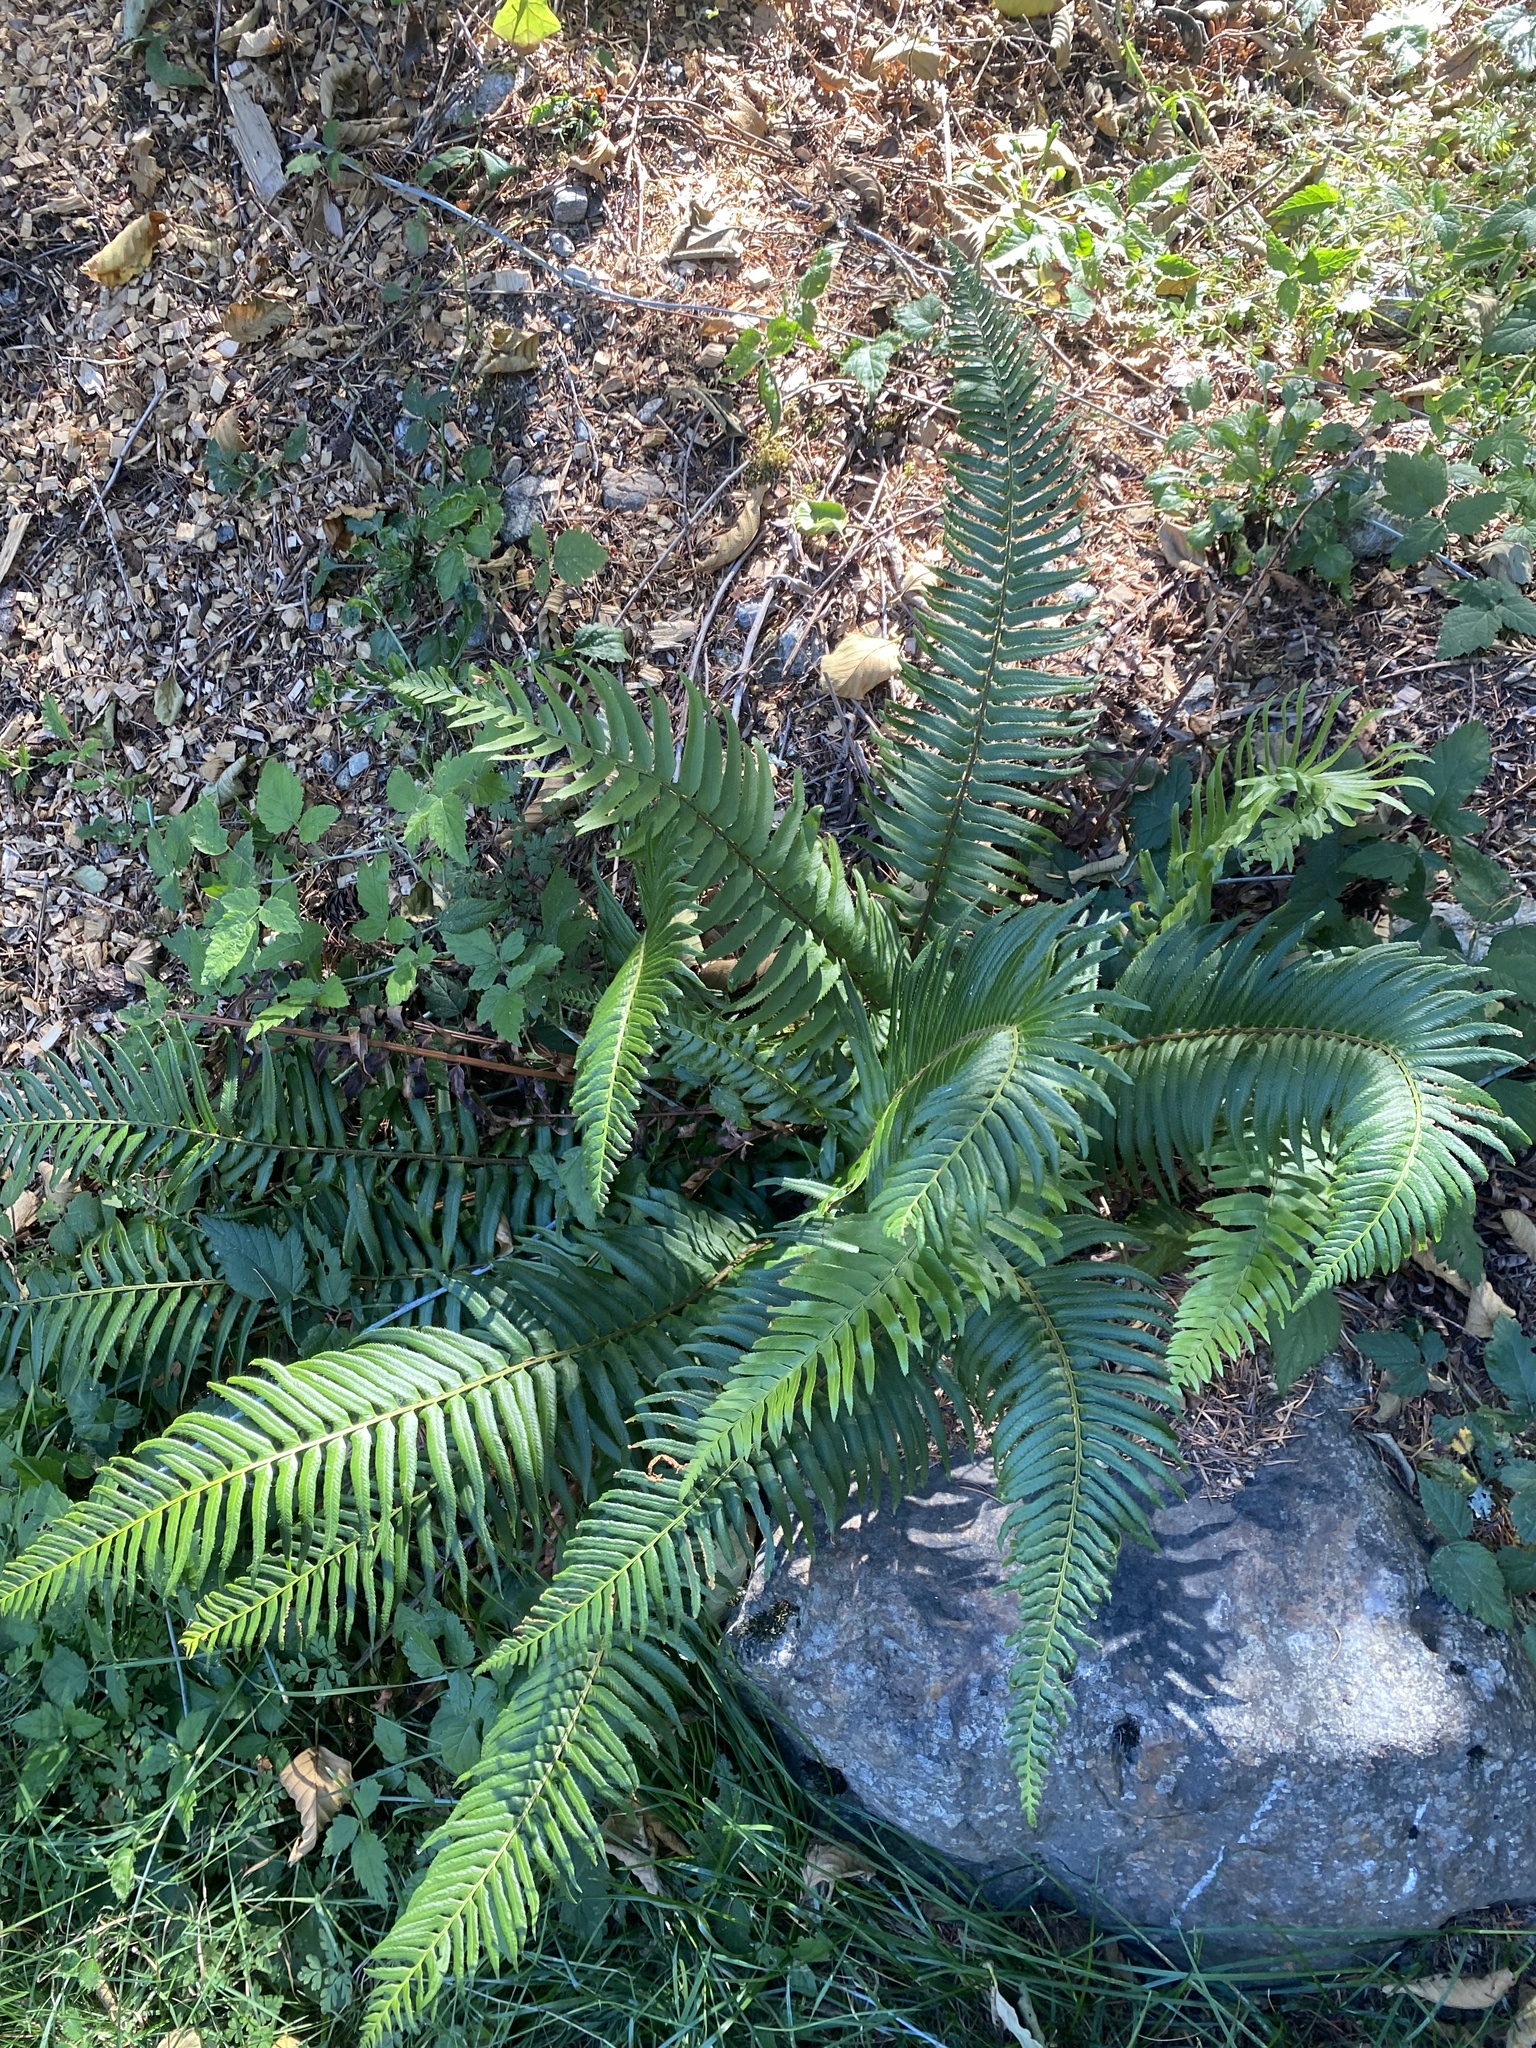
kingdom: Plantae
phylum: Tracheophyta
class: Polypodiopsida
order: Polypodiales
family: Dryopteridaceae
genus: Polystichum
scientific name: Polystichum munitum
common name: Western sword-fern
